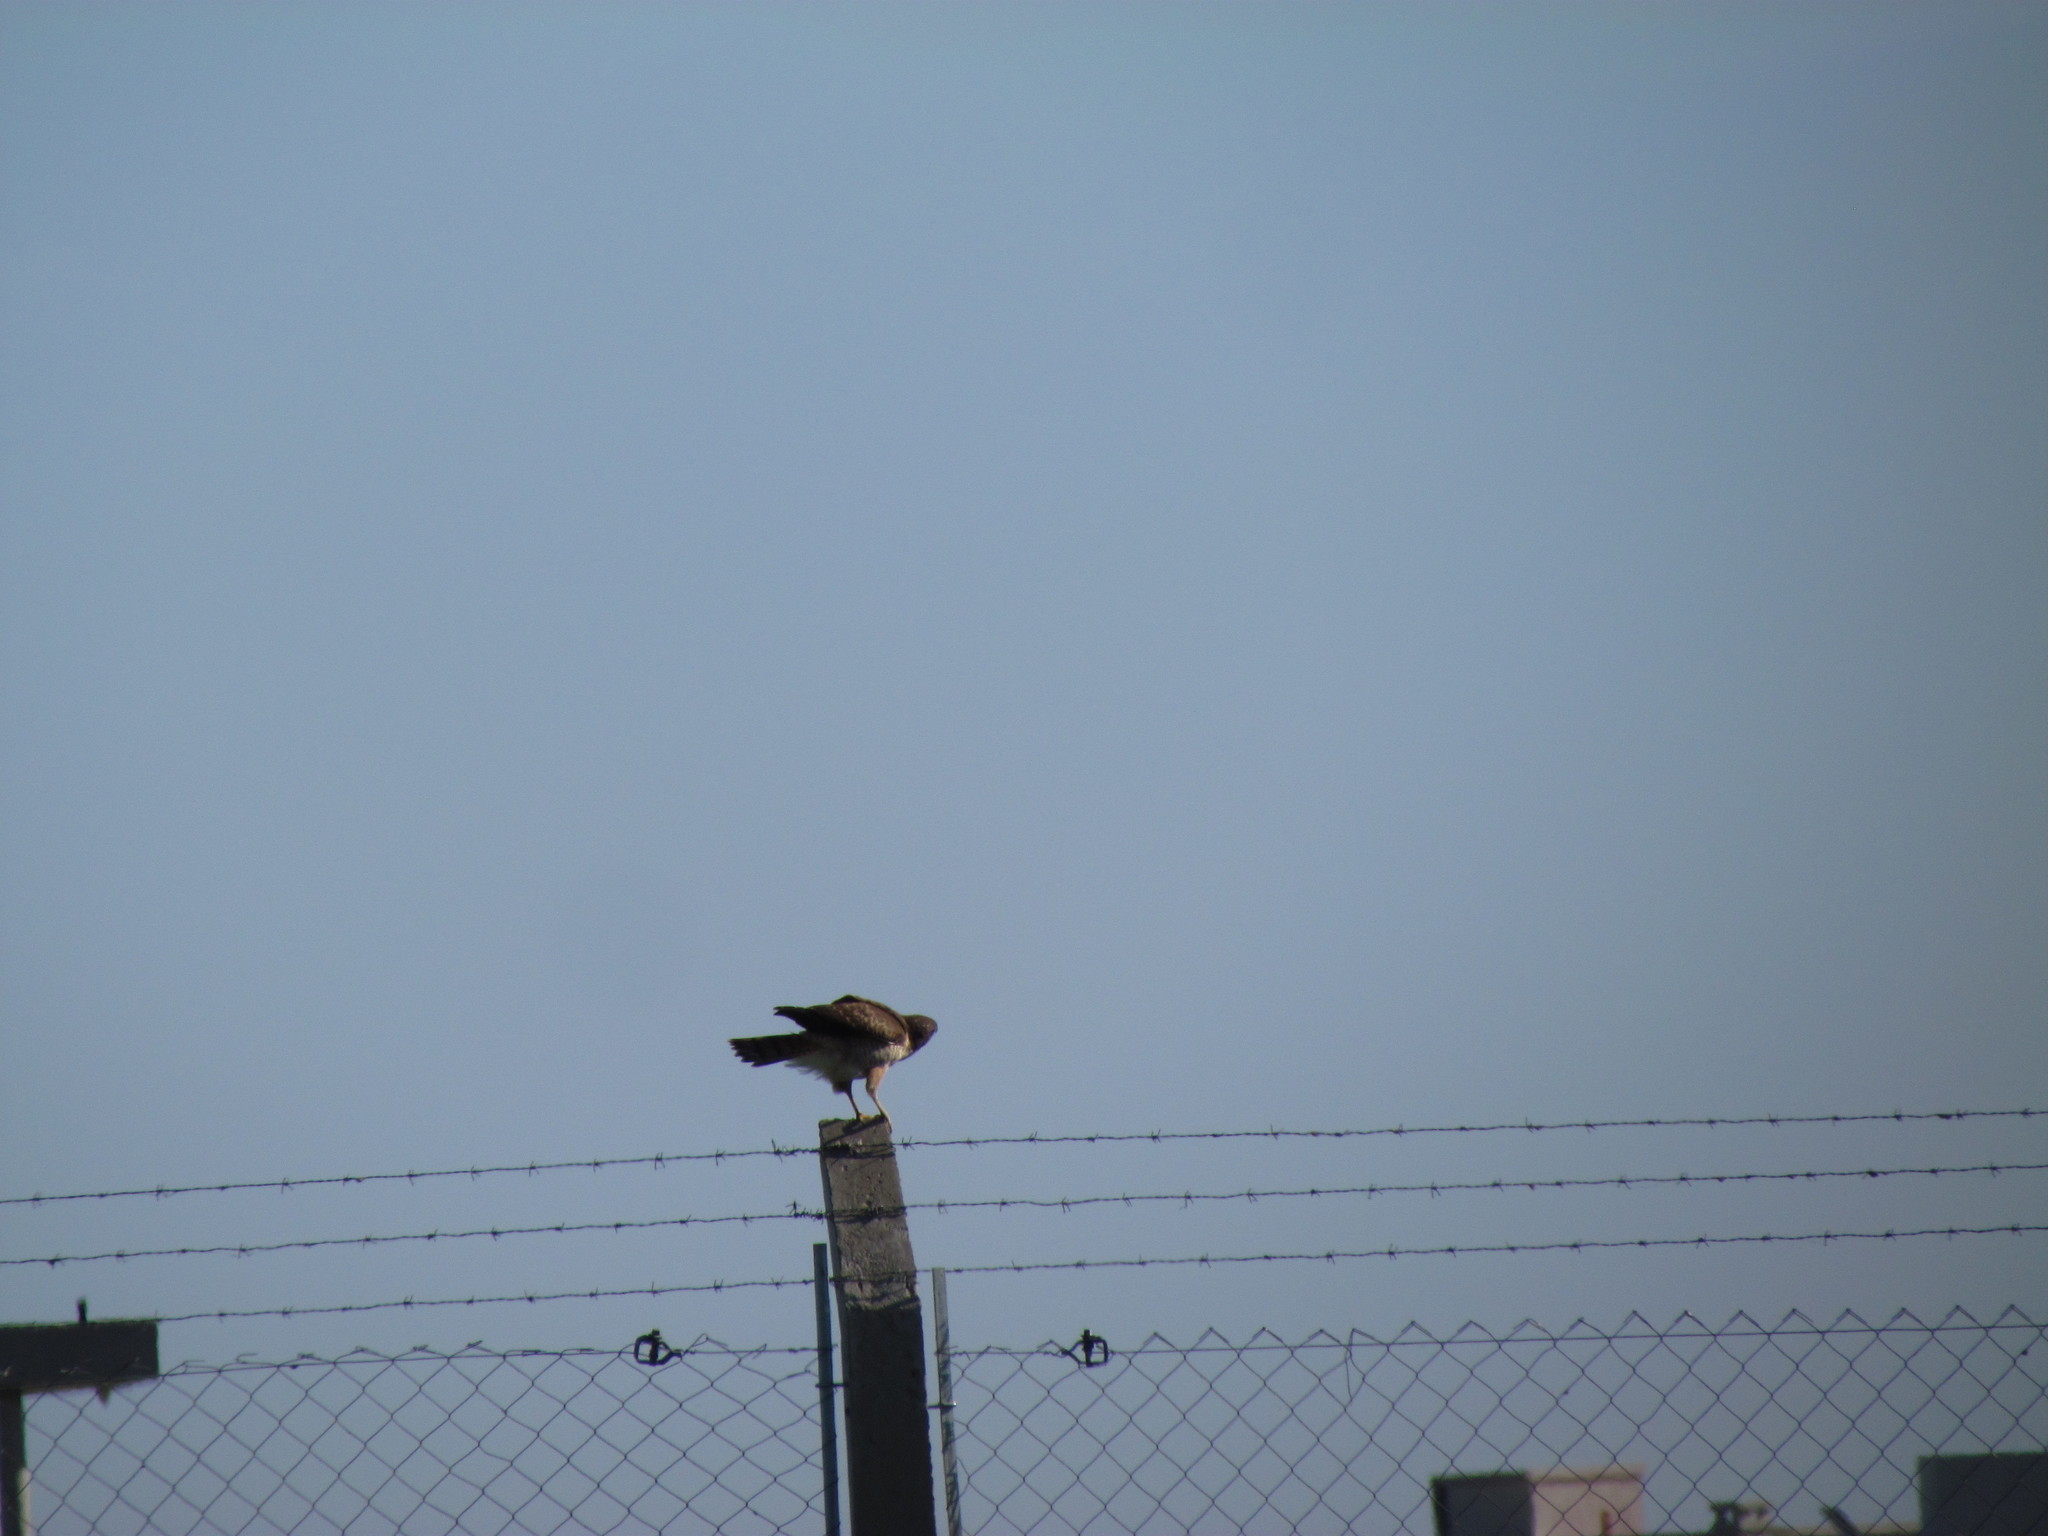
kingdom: Animalia
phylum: Chordata
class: Aves
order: Accipitriformes
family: Accipitridae
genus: Rupornis
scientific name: Rupornis magnirostris
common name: Roadside hawk
